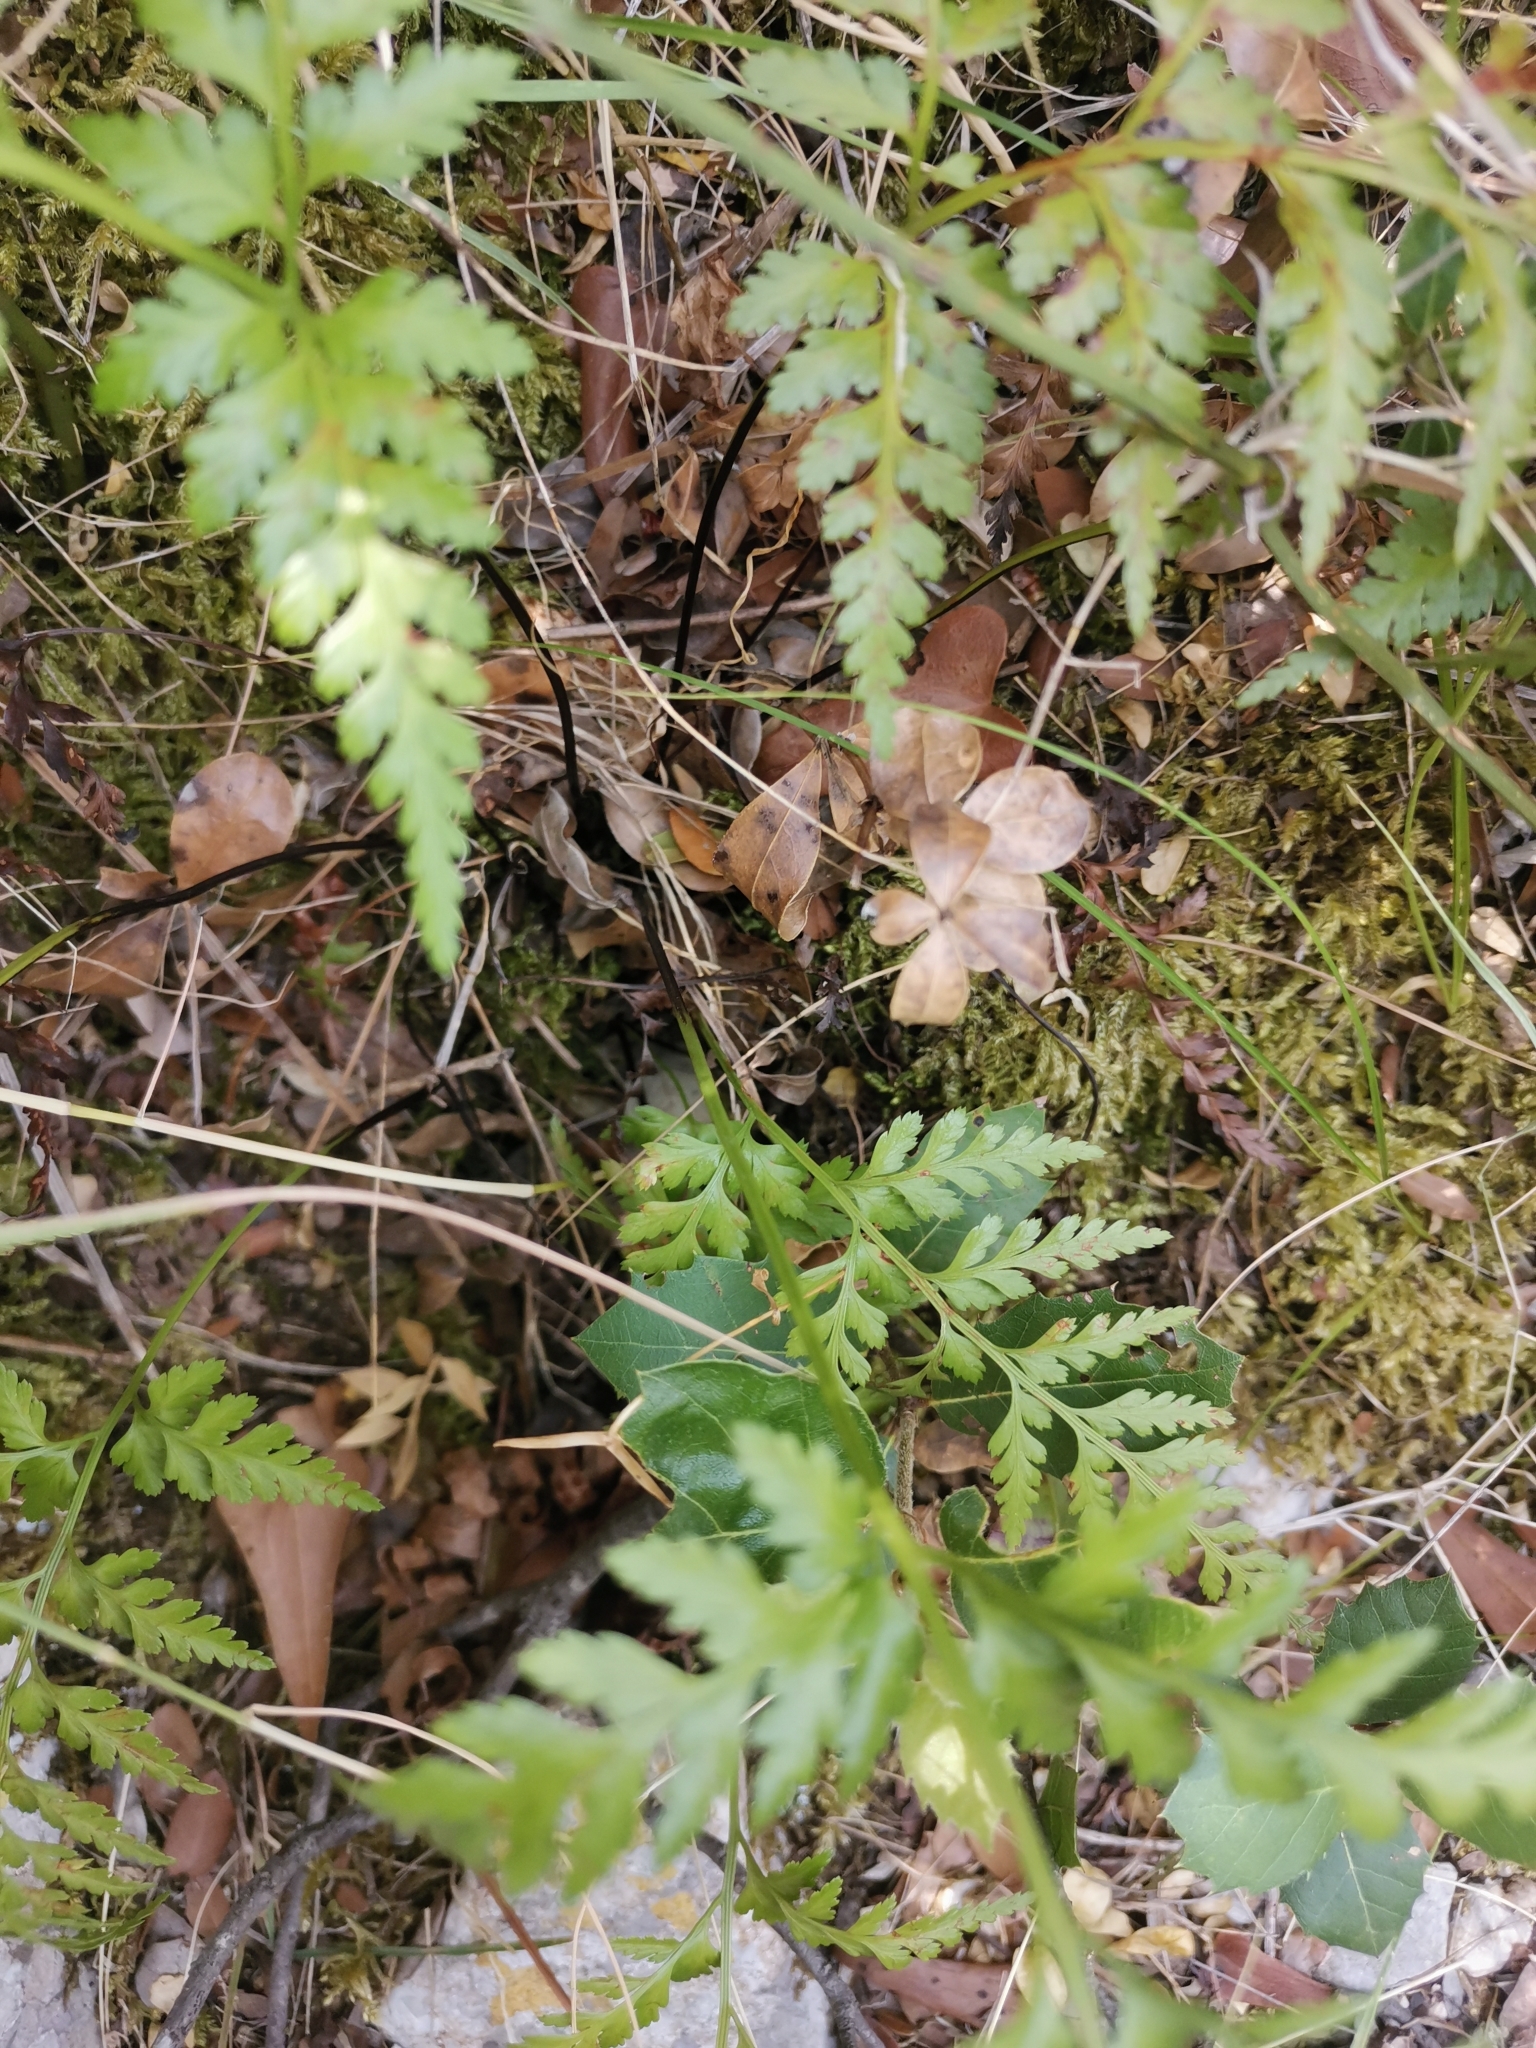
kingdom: Plantae
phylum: Tracheophyta
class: Polypodiopsida
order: Polypodiales
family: Aspleniaceae
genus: Asplenium
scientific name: Asplenium adiantum-nigrum
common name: Black spleenwort
